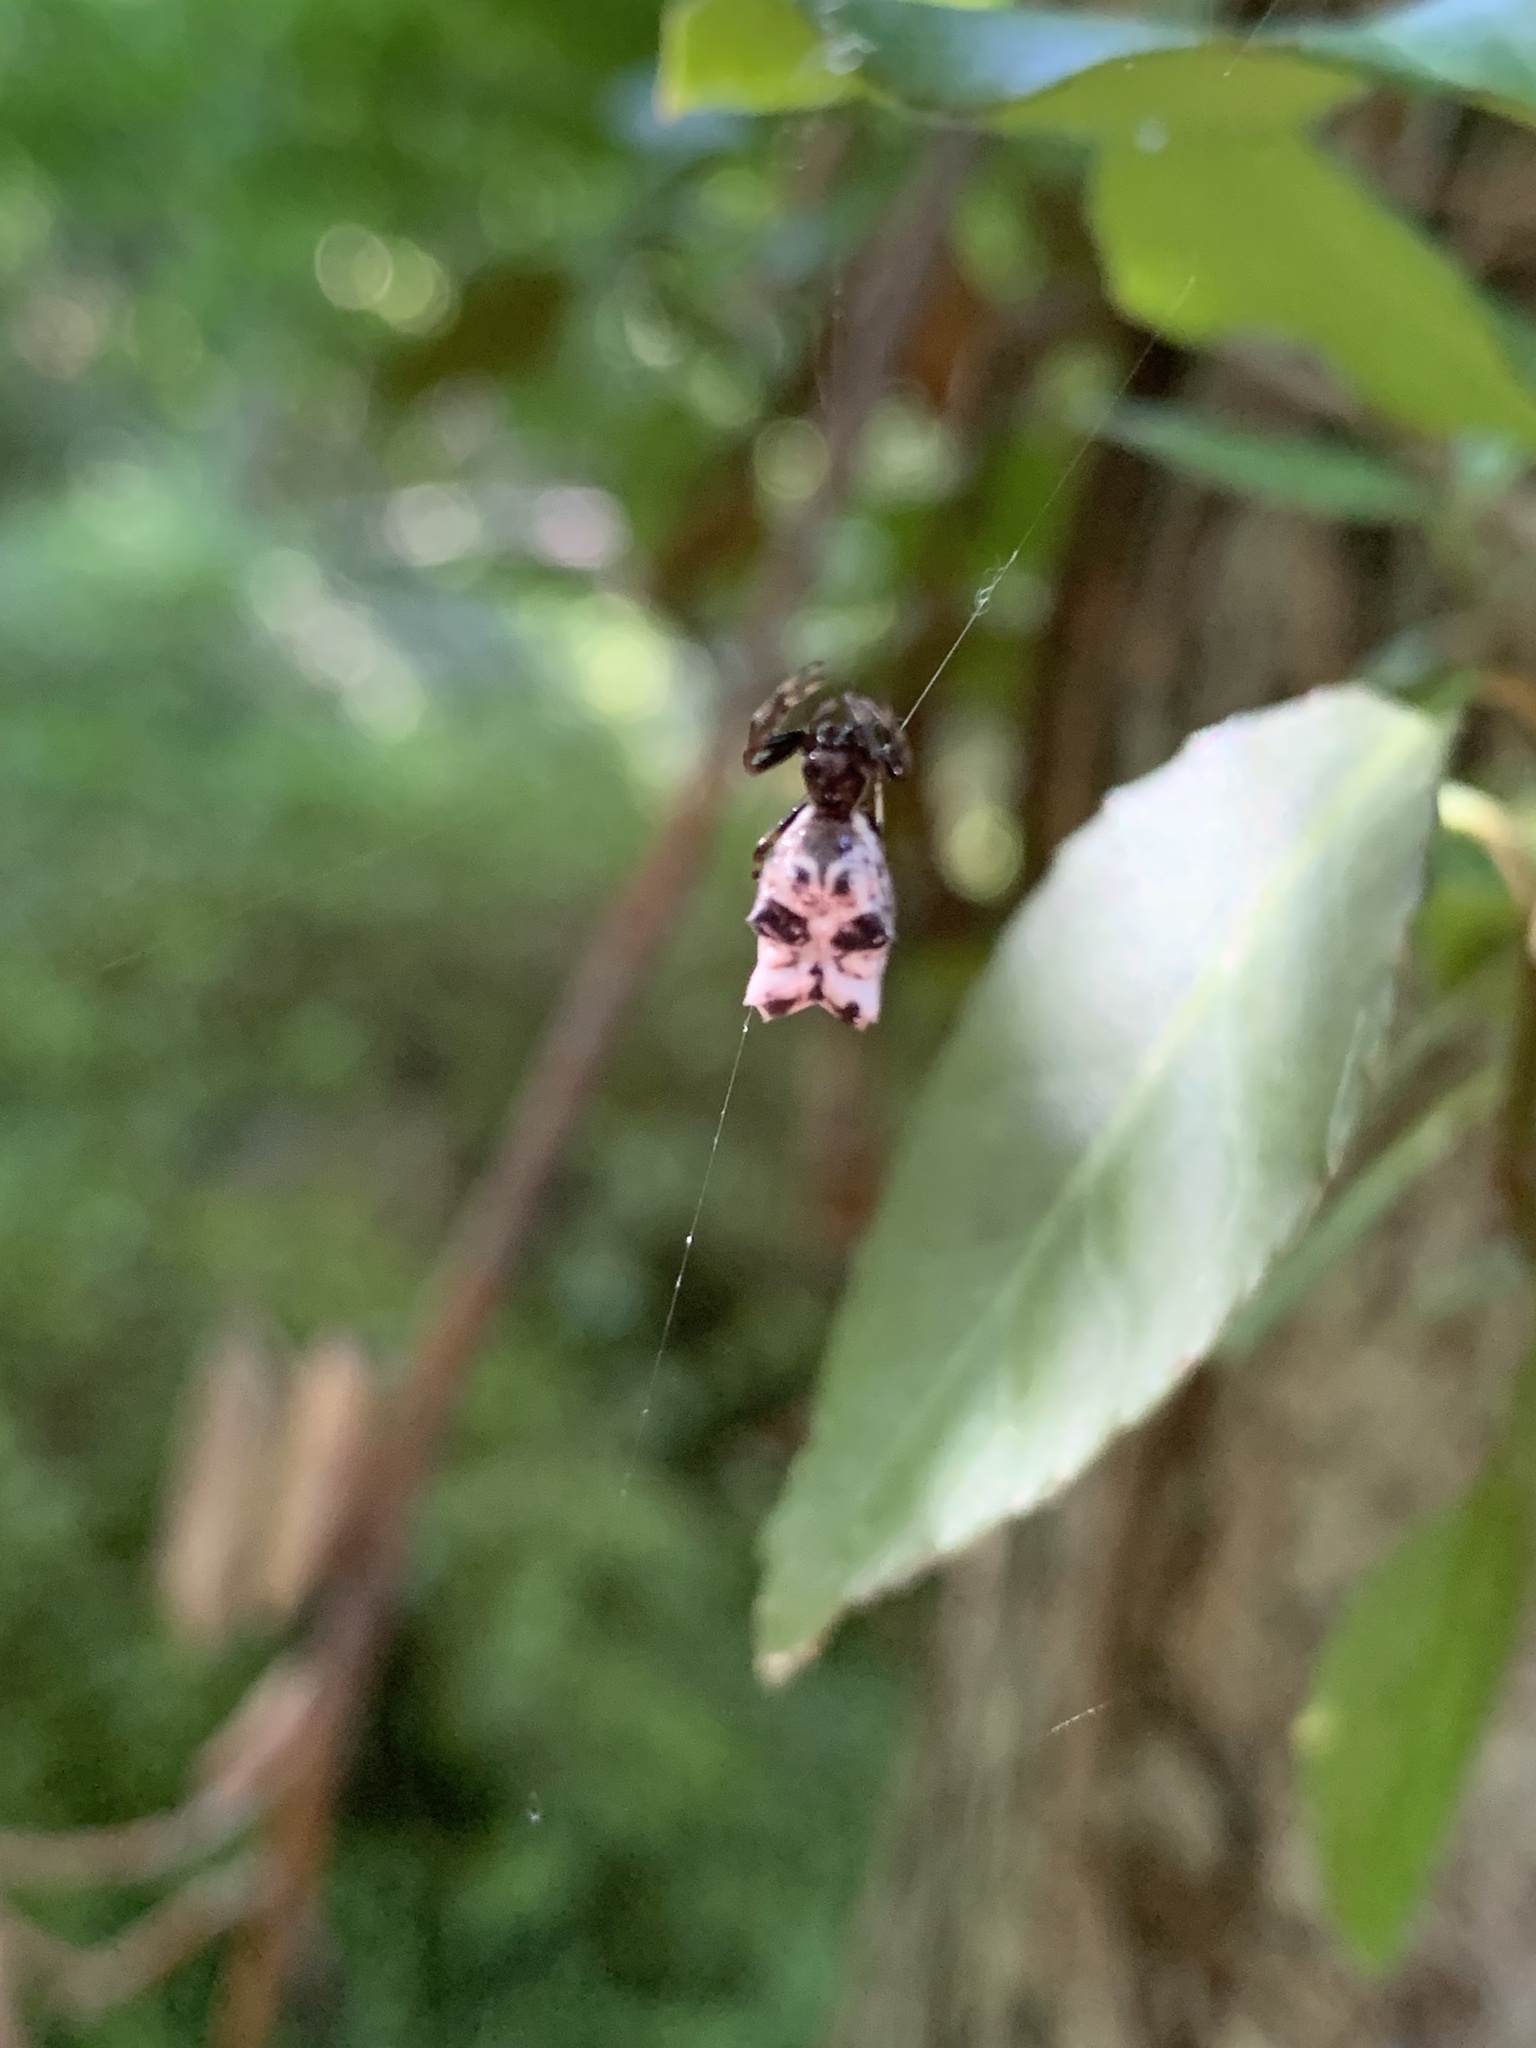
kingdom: Animalia
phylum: Arthropoda
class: Arachnida
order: Araneae
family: Araneidae
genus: Micrathena
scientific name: Micrathena gracilis
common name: Orb weavers
